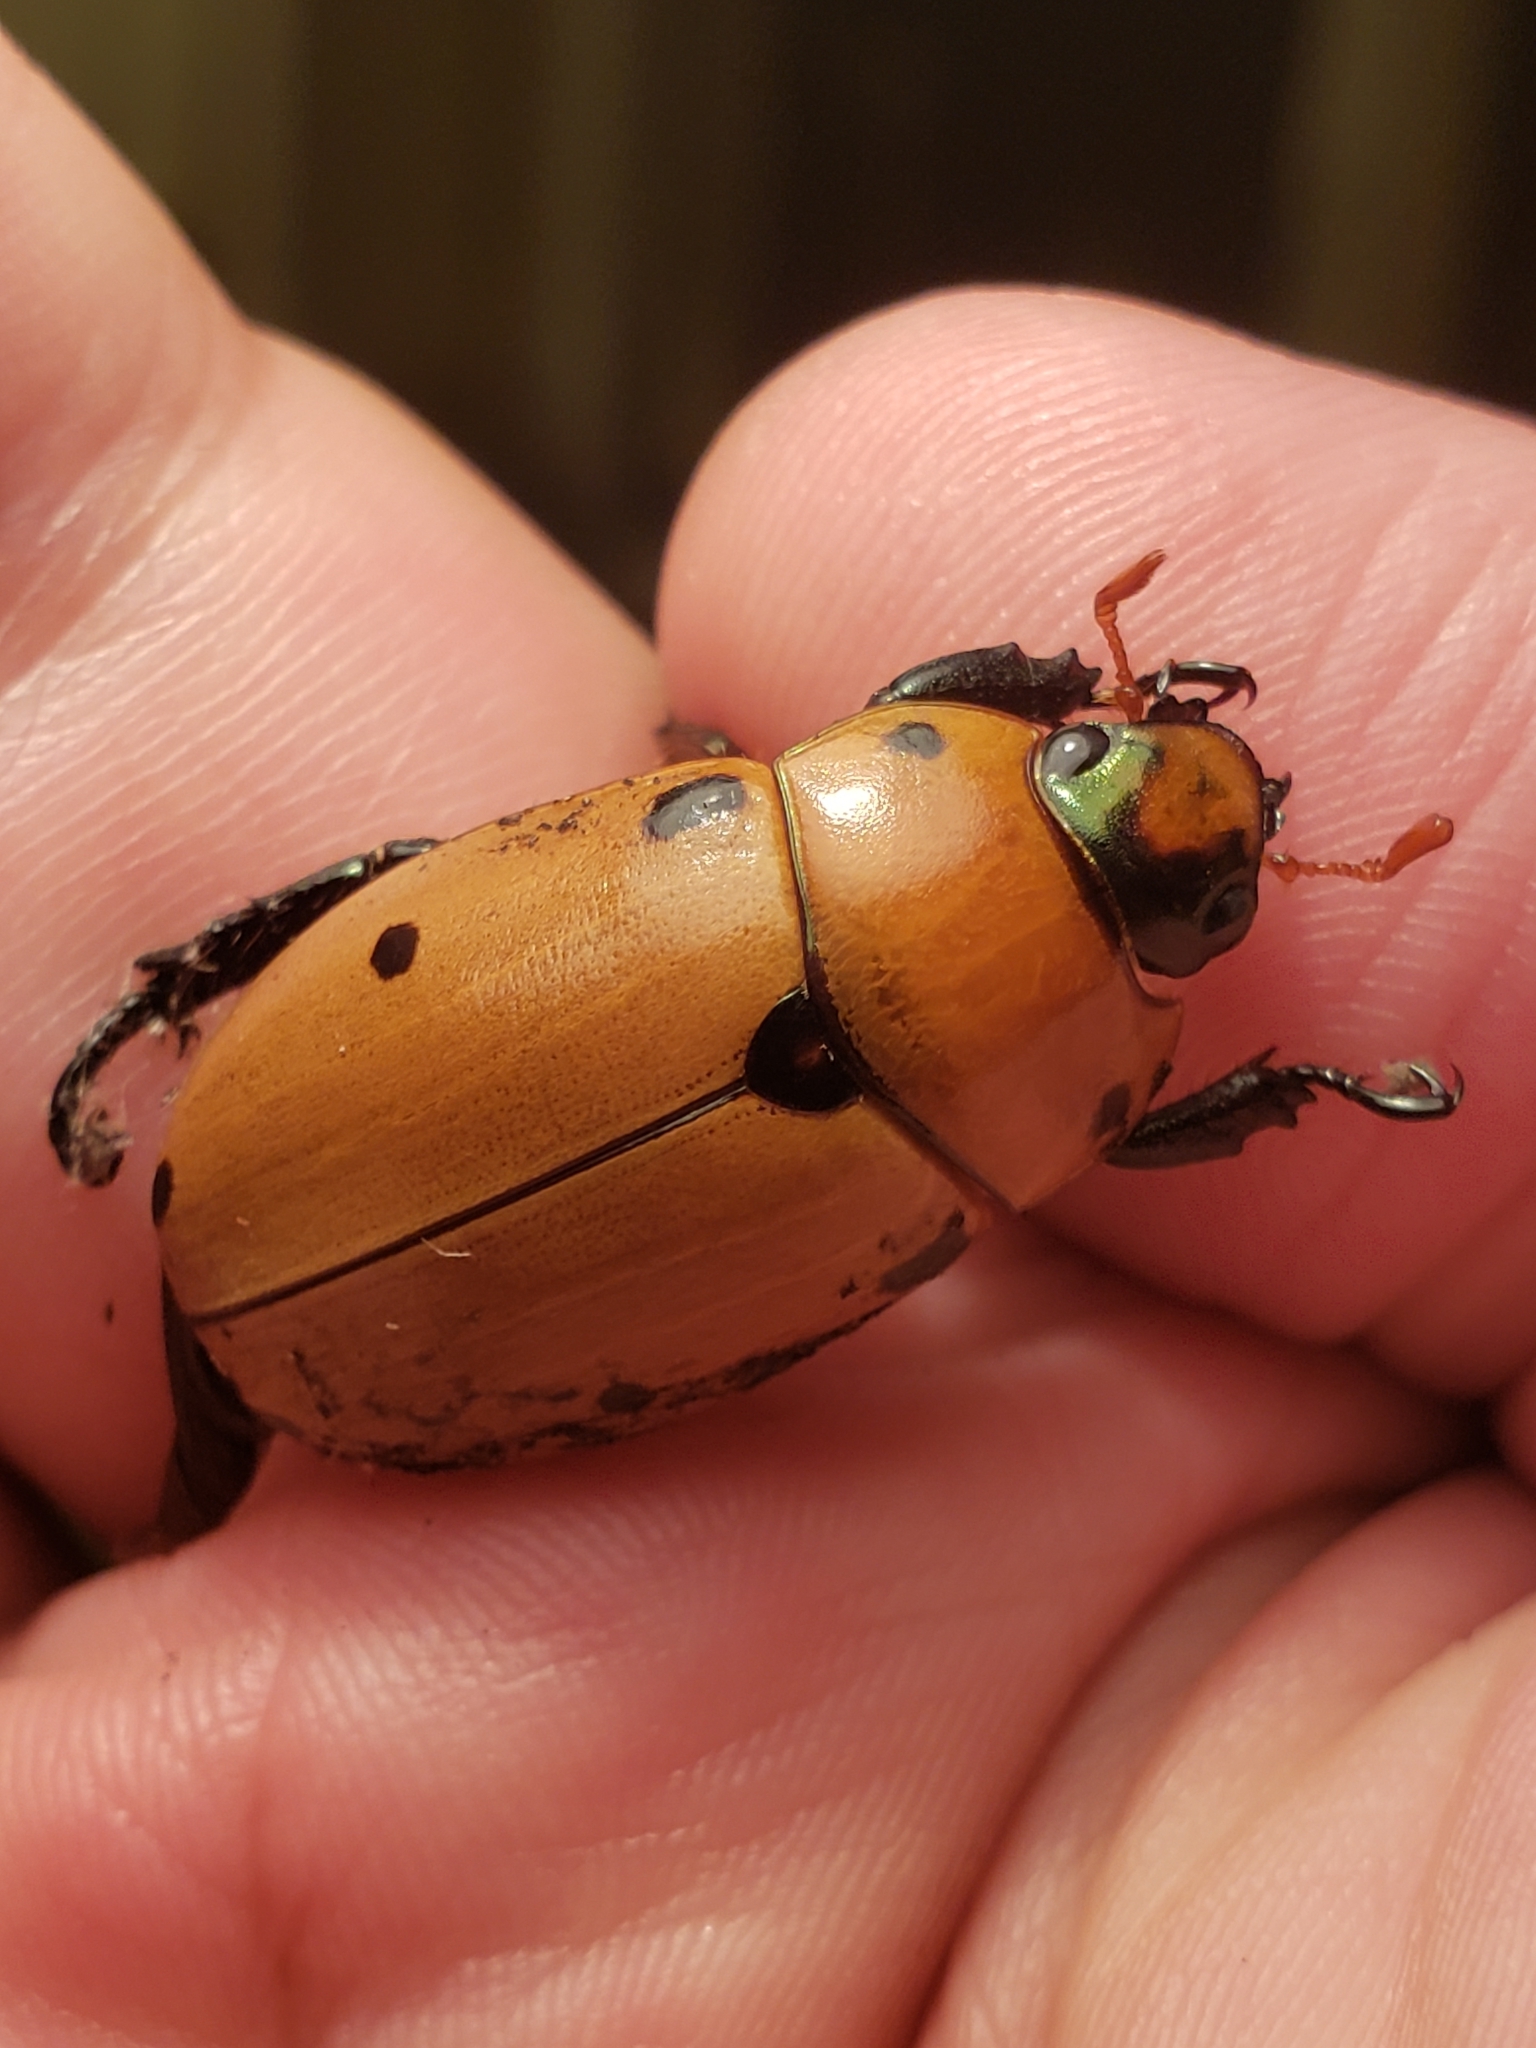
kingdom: Animalia
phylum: Arthropoda
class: Insecta
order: Coleoptera
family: Scarabaeidae
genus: Pelidnota
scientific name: Pelidnota punctata
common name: Grapevine beetle
